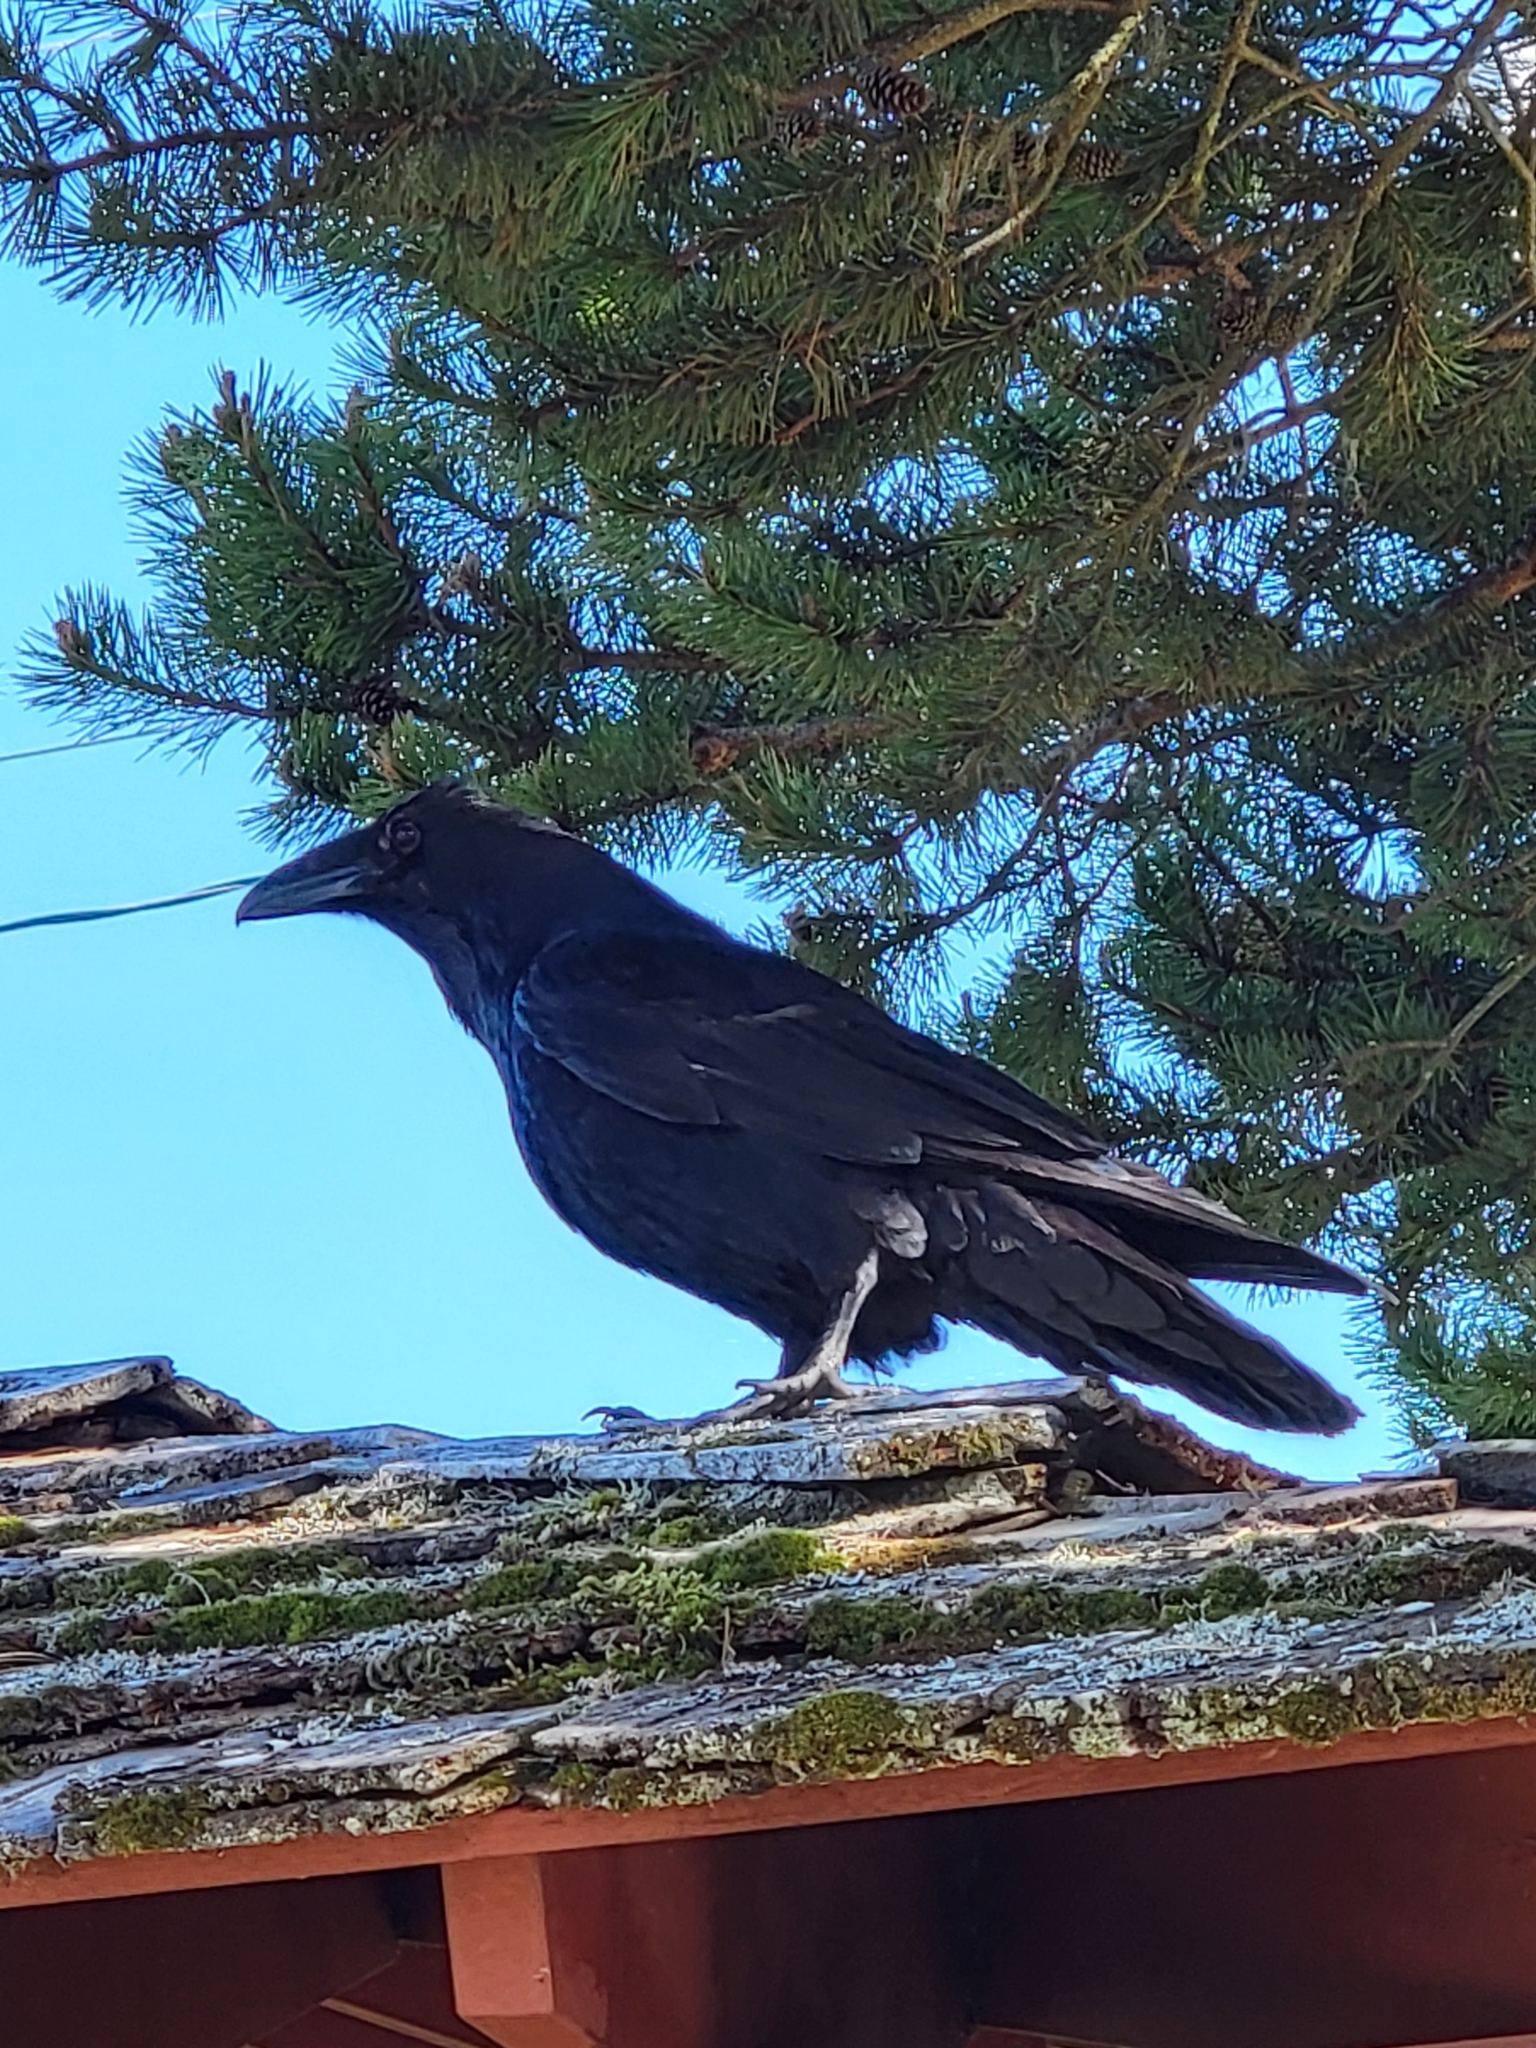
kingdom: Animalia
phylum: Chordata
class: Aves
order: Passeriformes
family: Corvidae
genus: Corvus
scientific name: Corvus corax
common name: Common raven
